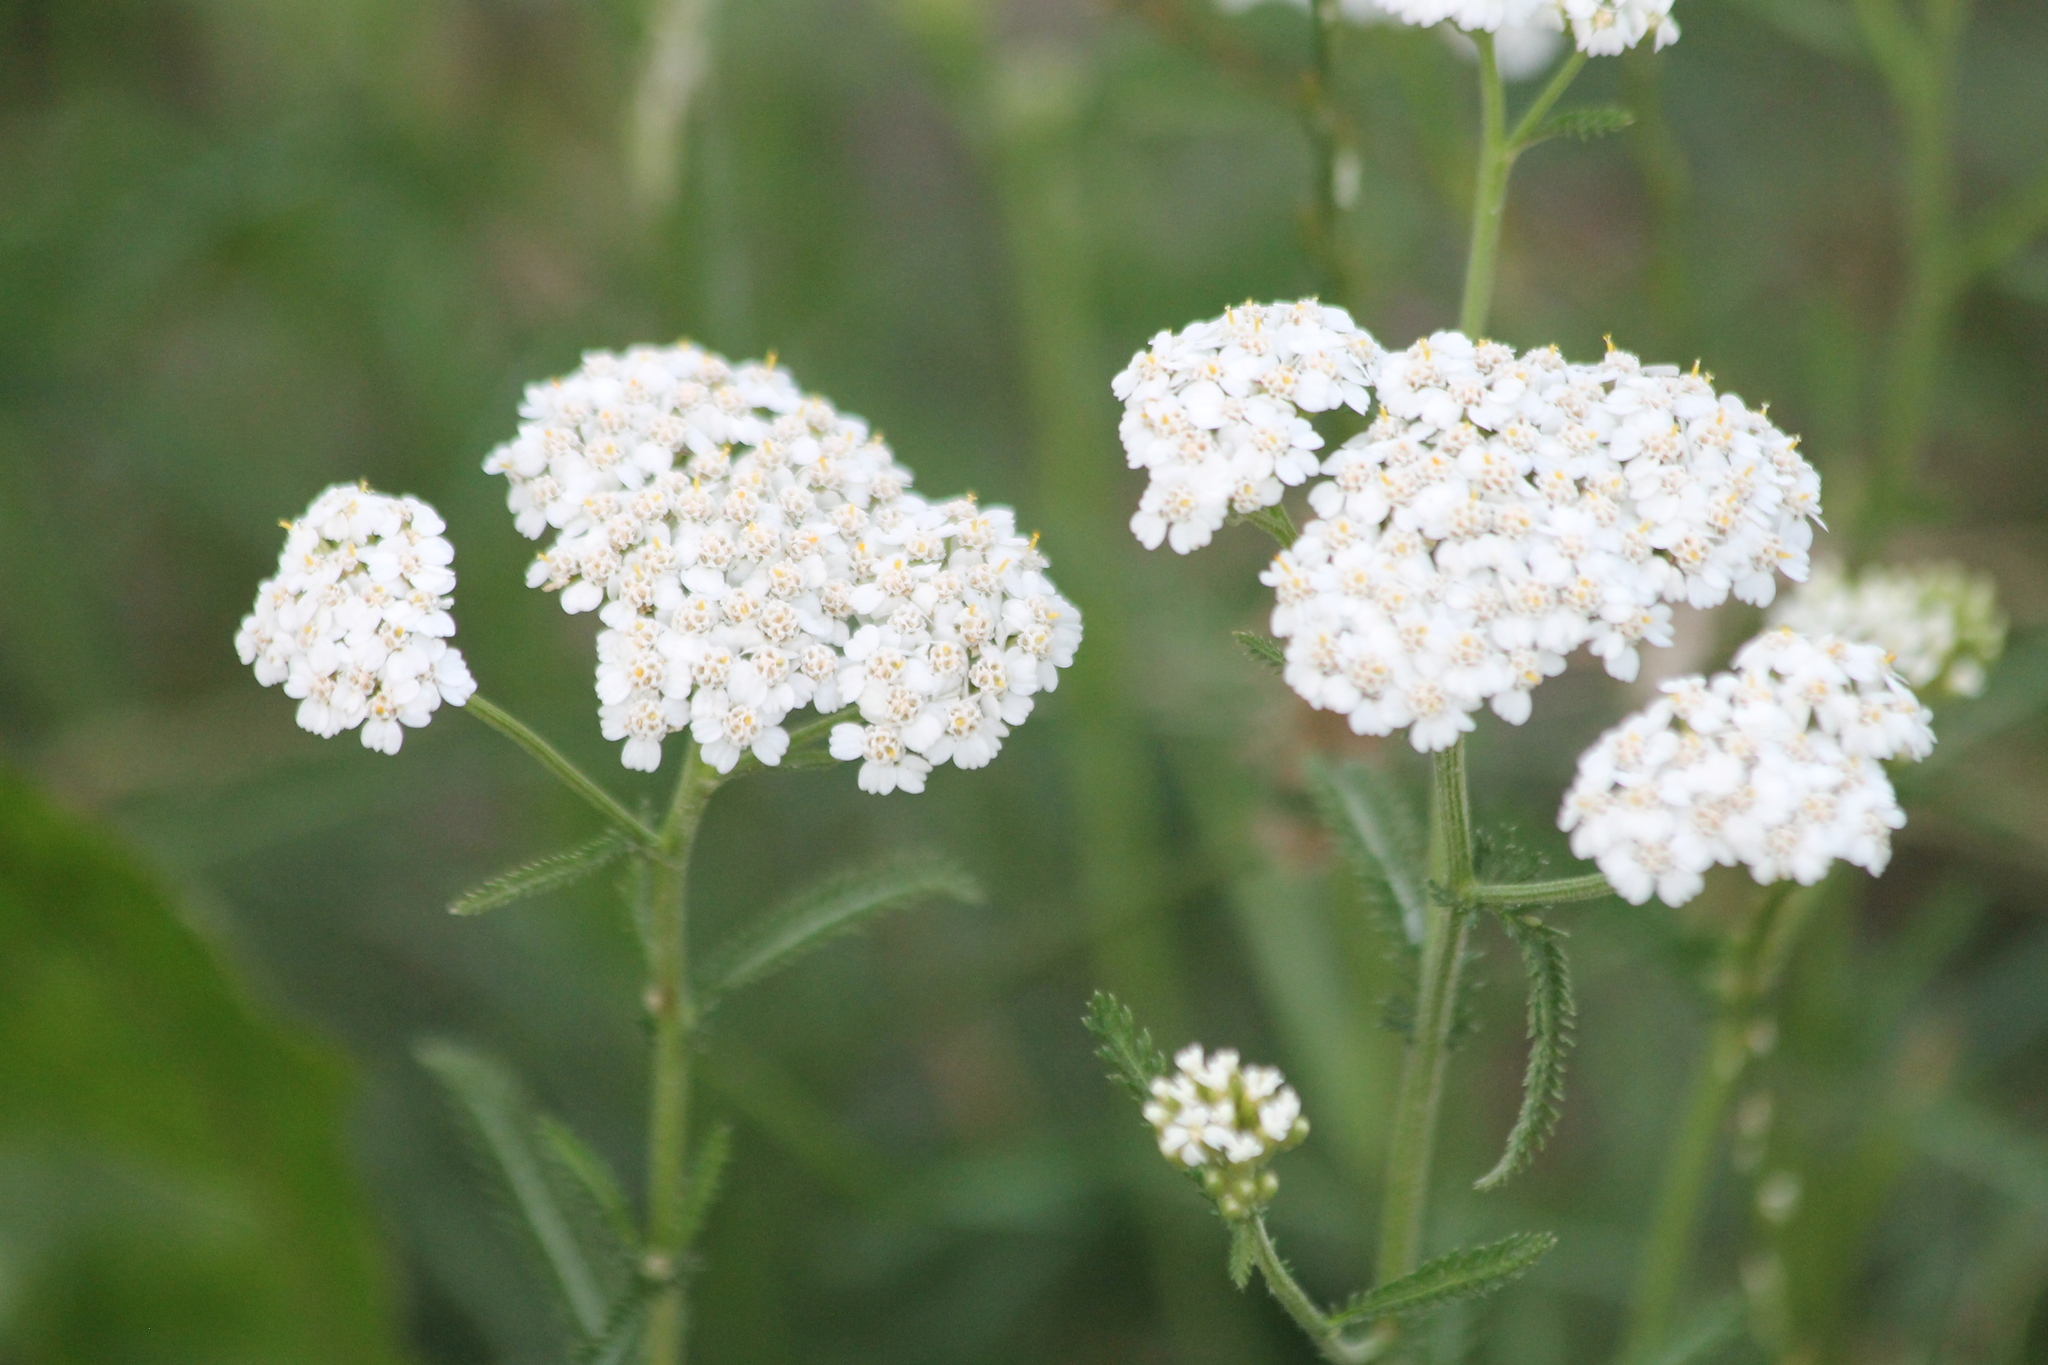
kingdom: Plantae
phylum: Tracheophyta
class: Magnoliopsida
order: Asterales
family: Asteraceae
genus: Achillea
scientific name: Achillea millefolium
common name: Yarrow
